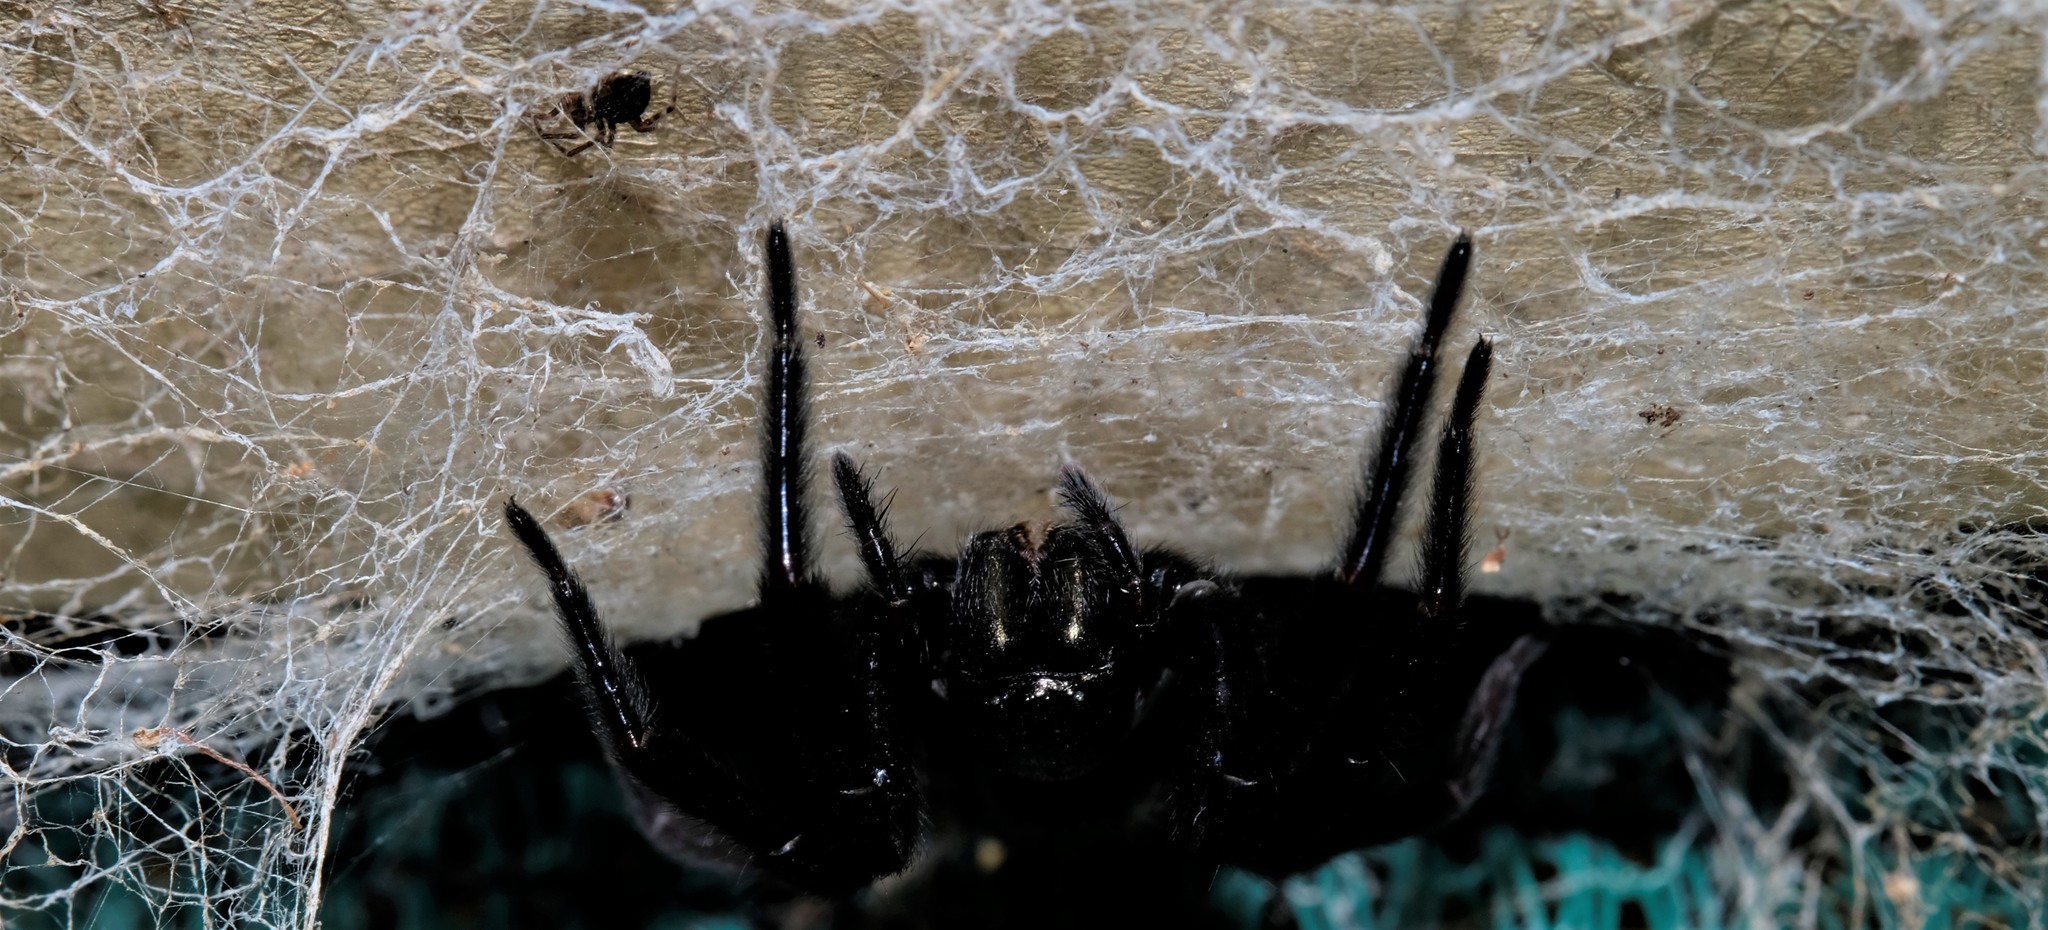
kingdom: Animalia
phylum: Arthropoda
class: Arachnida
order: Araneae
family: Desidae
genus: Badumna
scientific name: Badumna insignis
